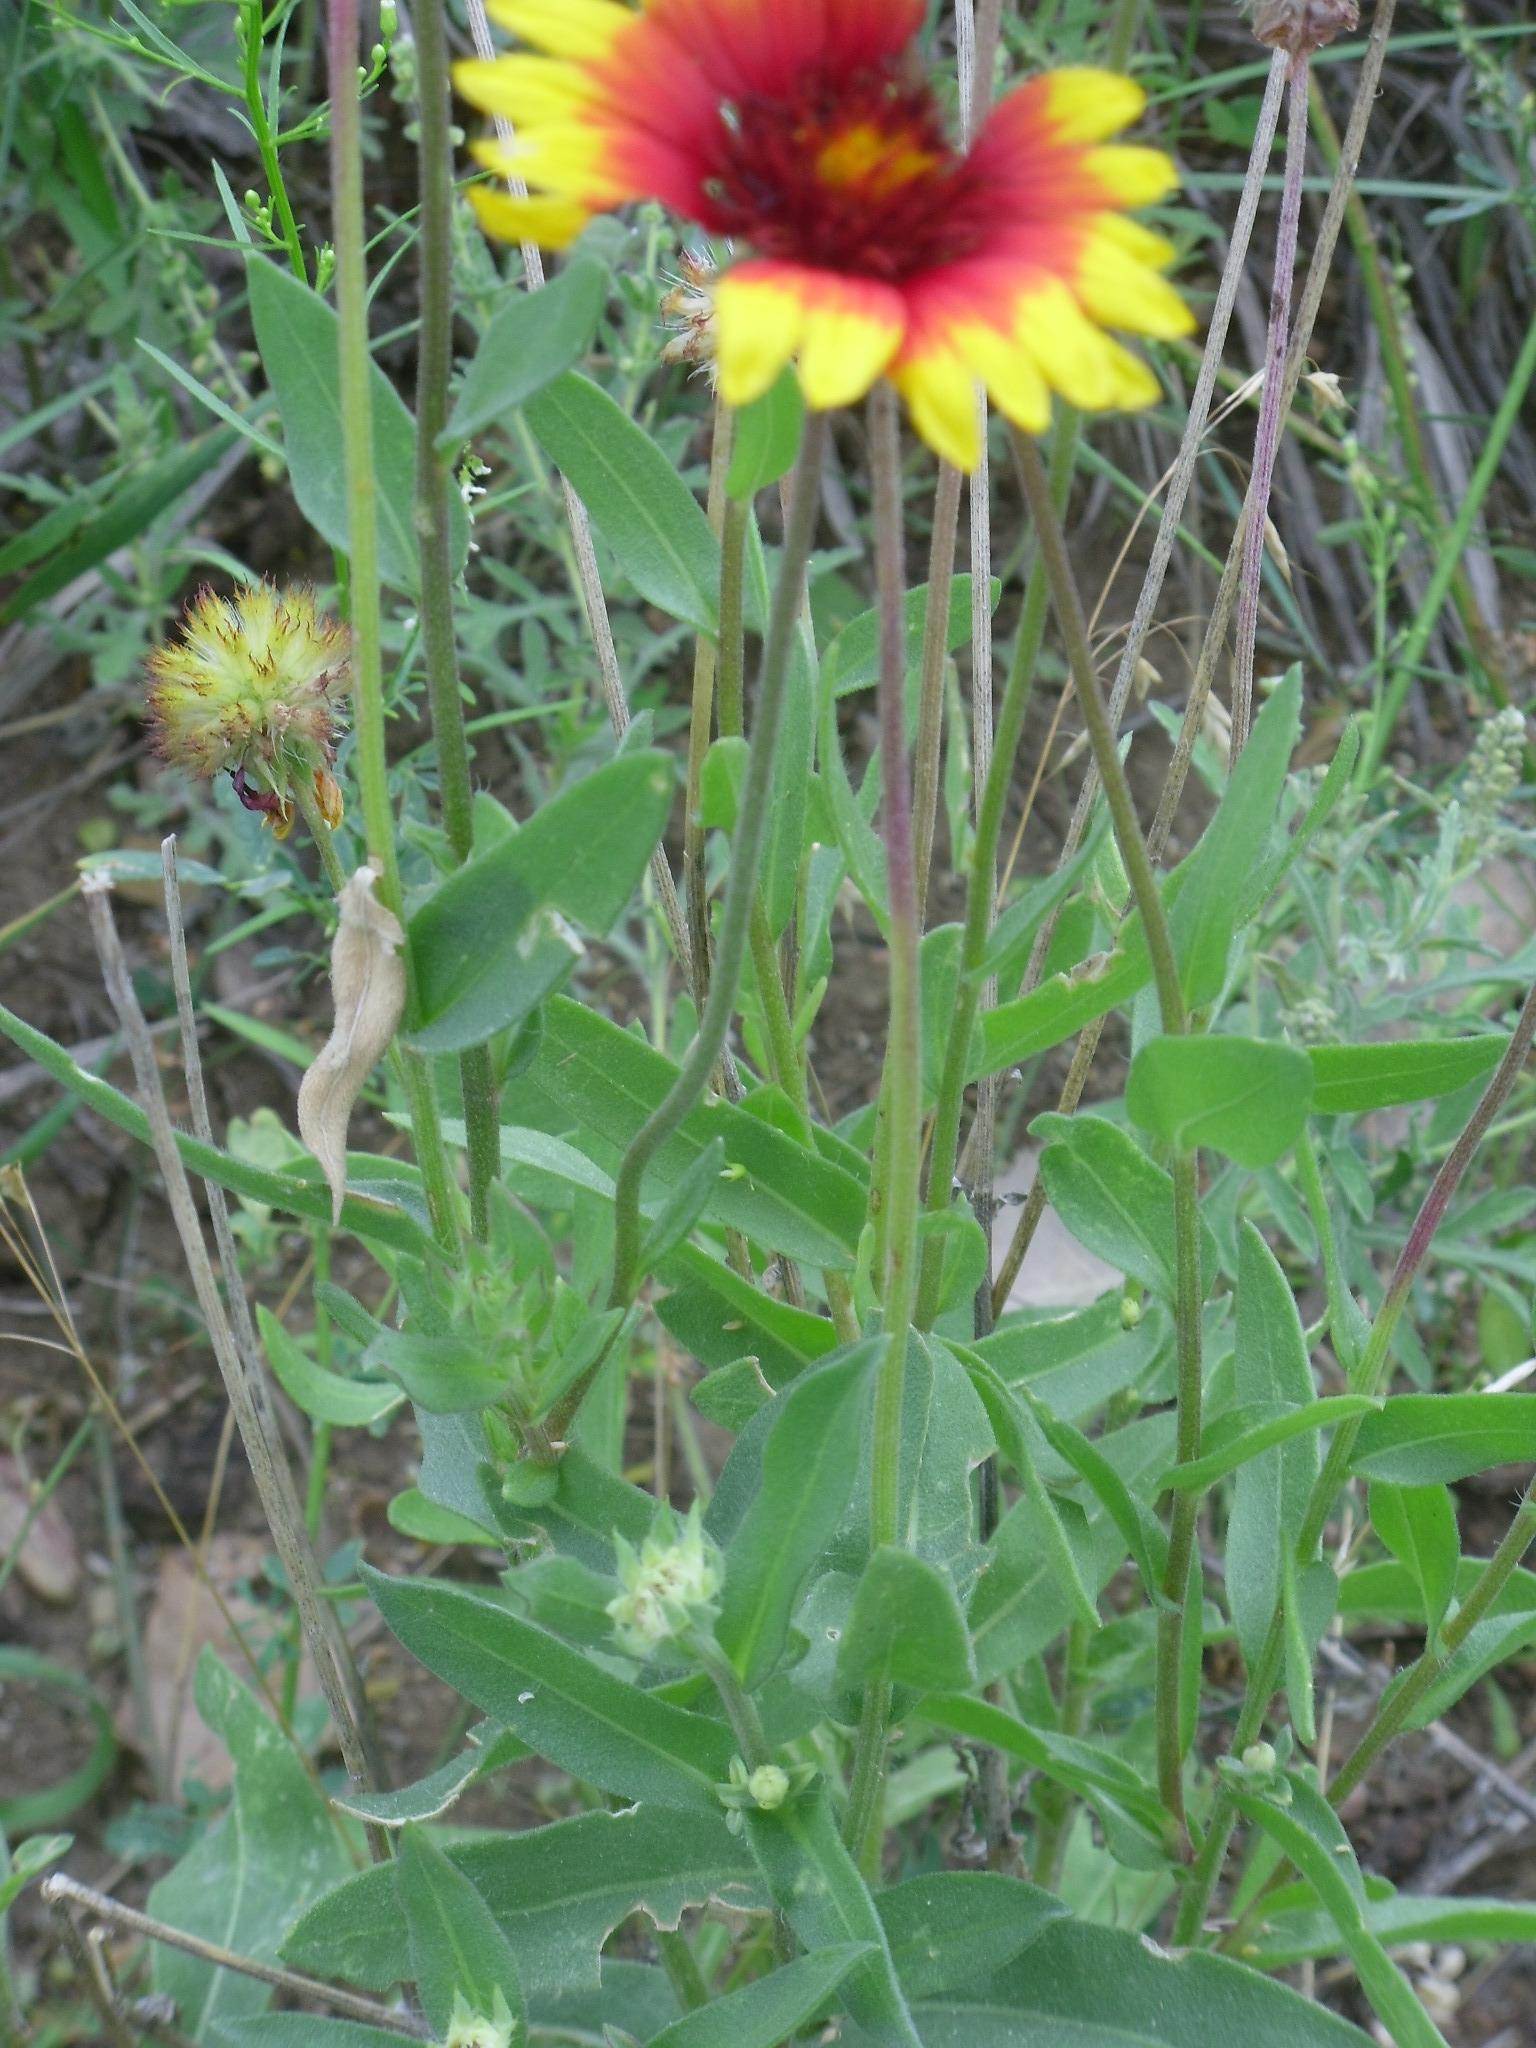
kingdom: Plantae
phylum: Tracheophyta
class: Magnoliopsida
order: Asterales
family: Asteraceae
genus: Gaillardia
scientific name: Gaillardia grandiflora
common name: Blanket flower
